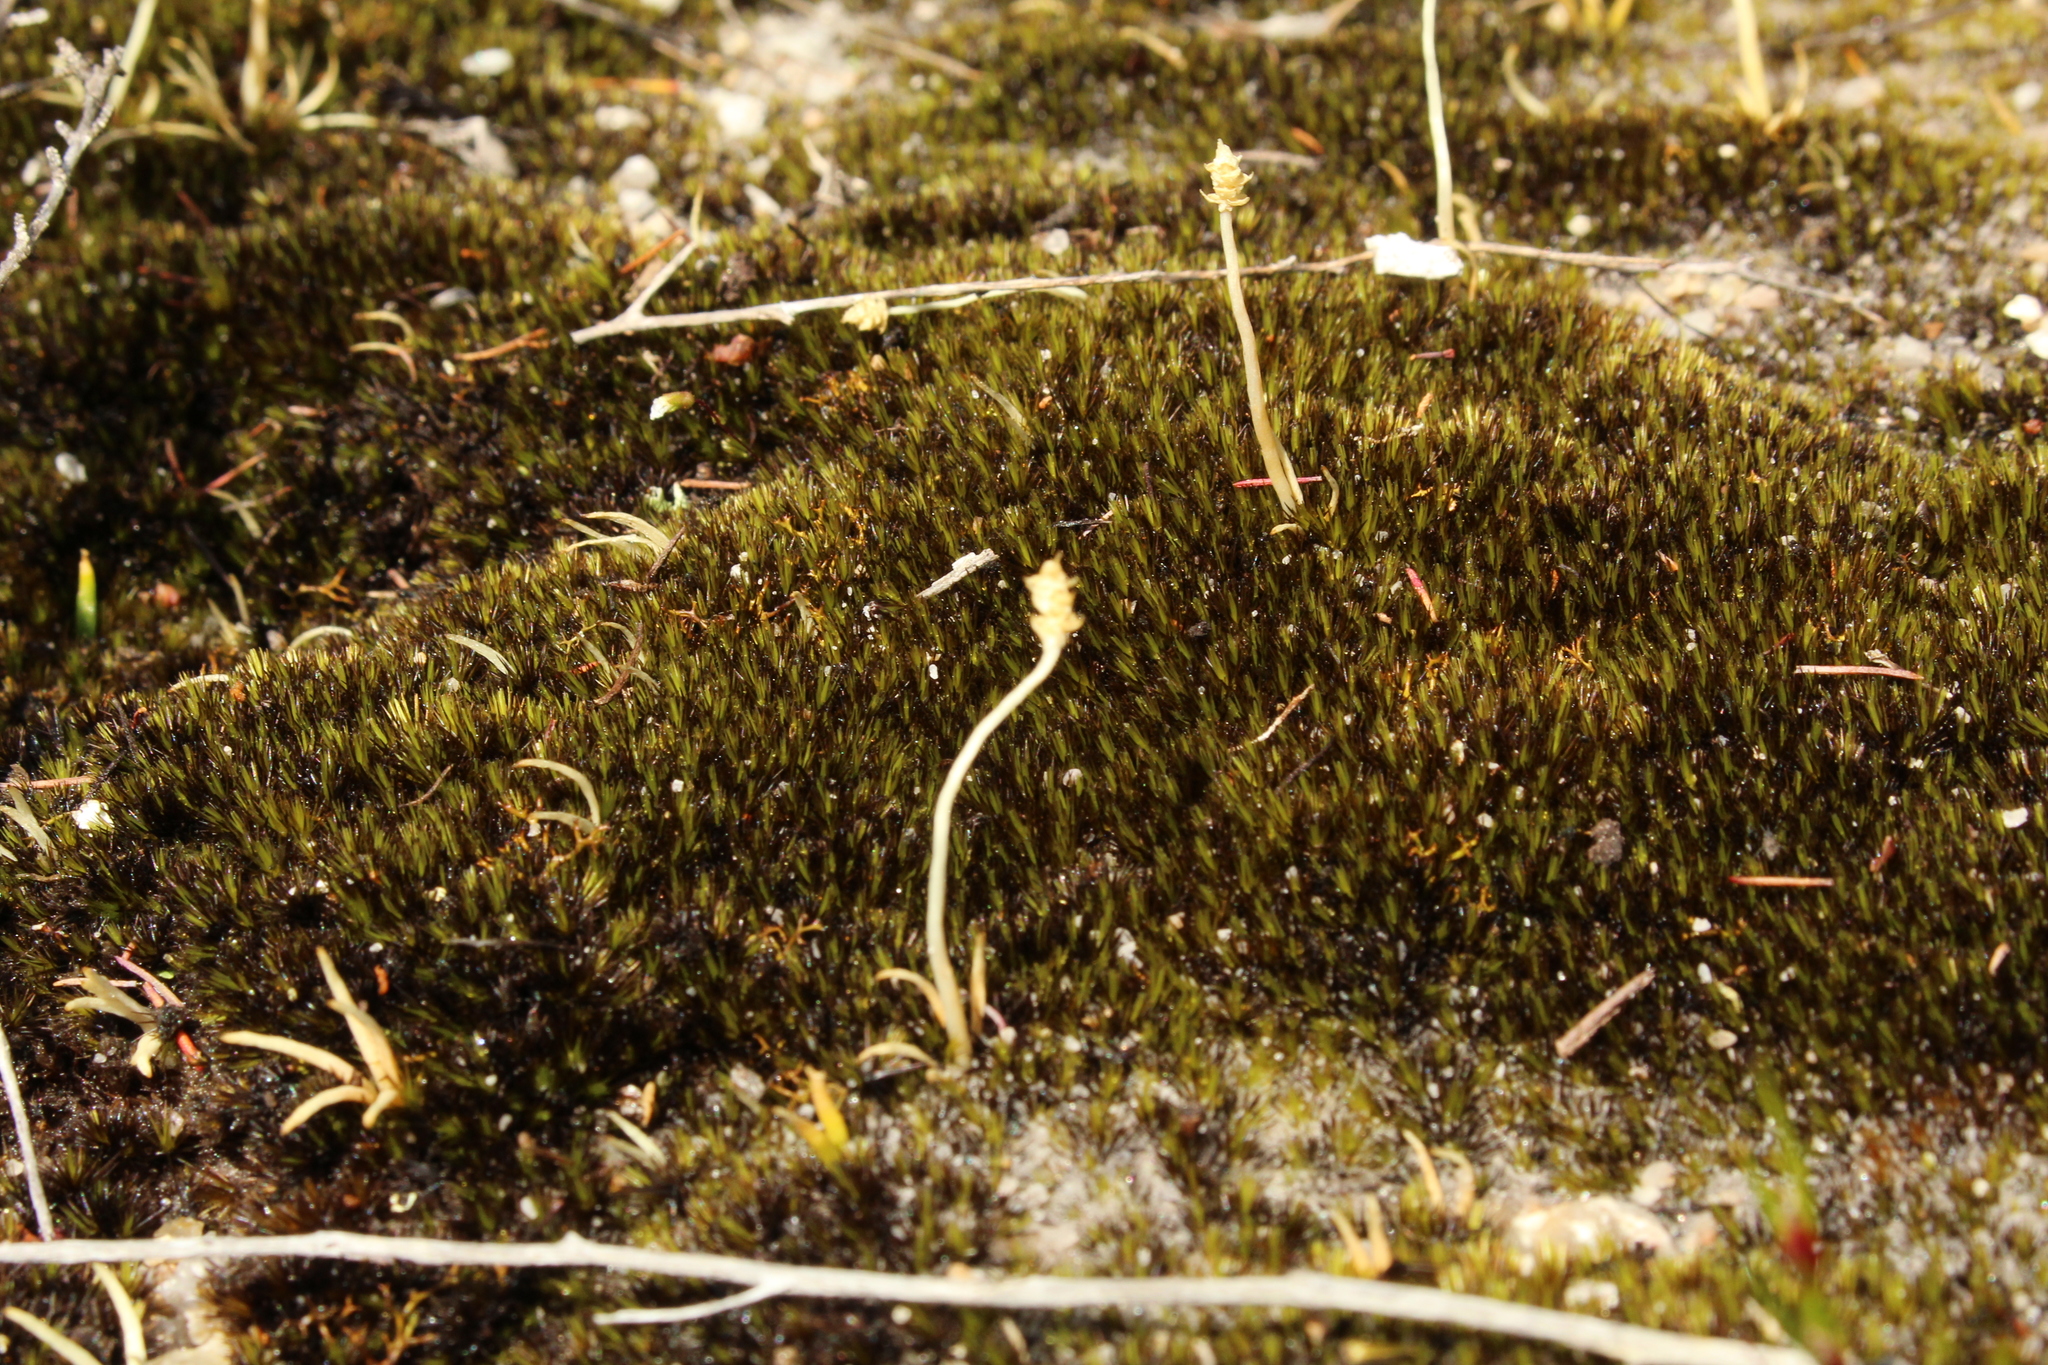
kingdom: Plantae
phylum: Tracheophyta
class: Lycopodiopsida
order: Lycopodiales
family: Lycopodiaceae
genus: Phylloglossum
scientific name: Phylloglossum drummondii
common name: Pigmy-club-moss
